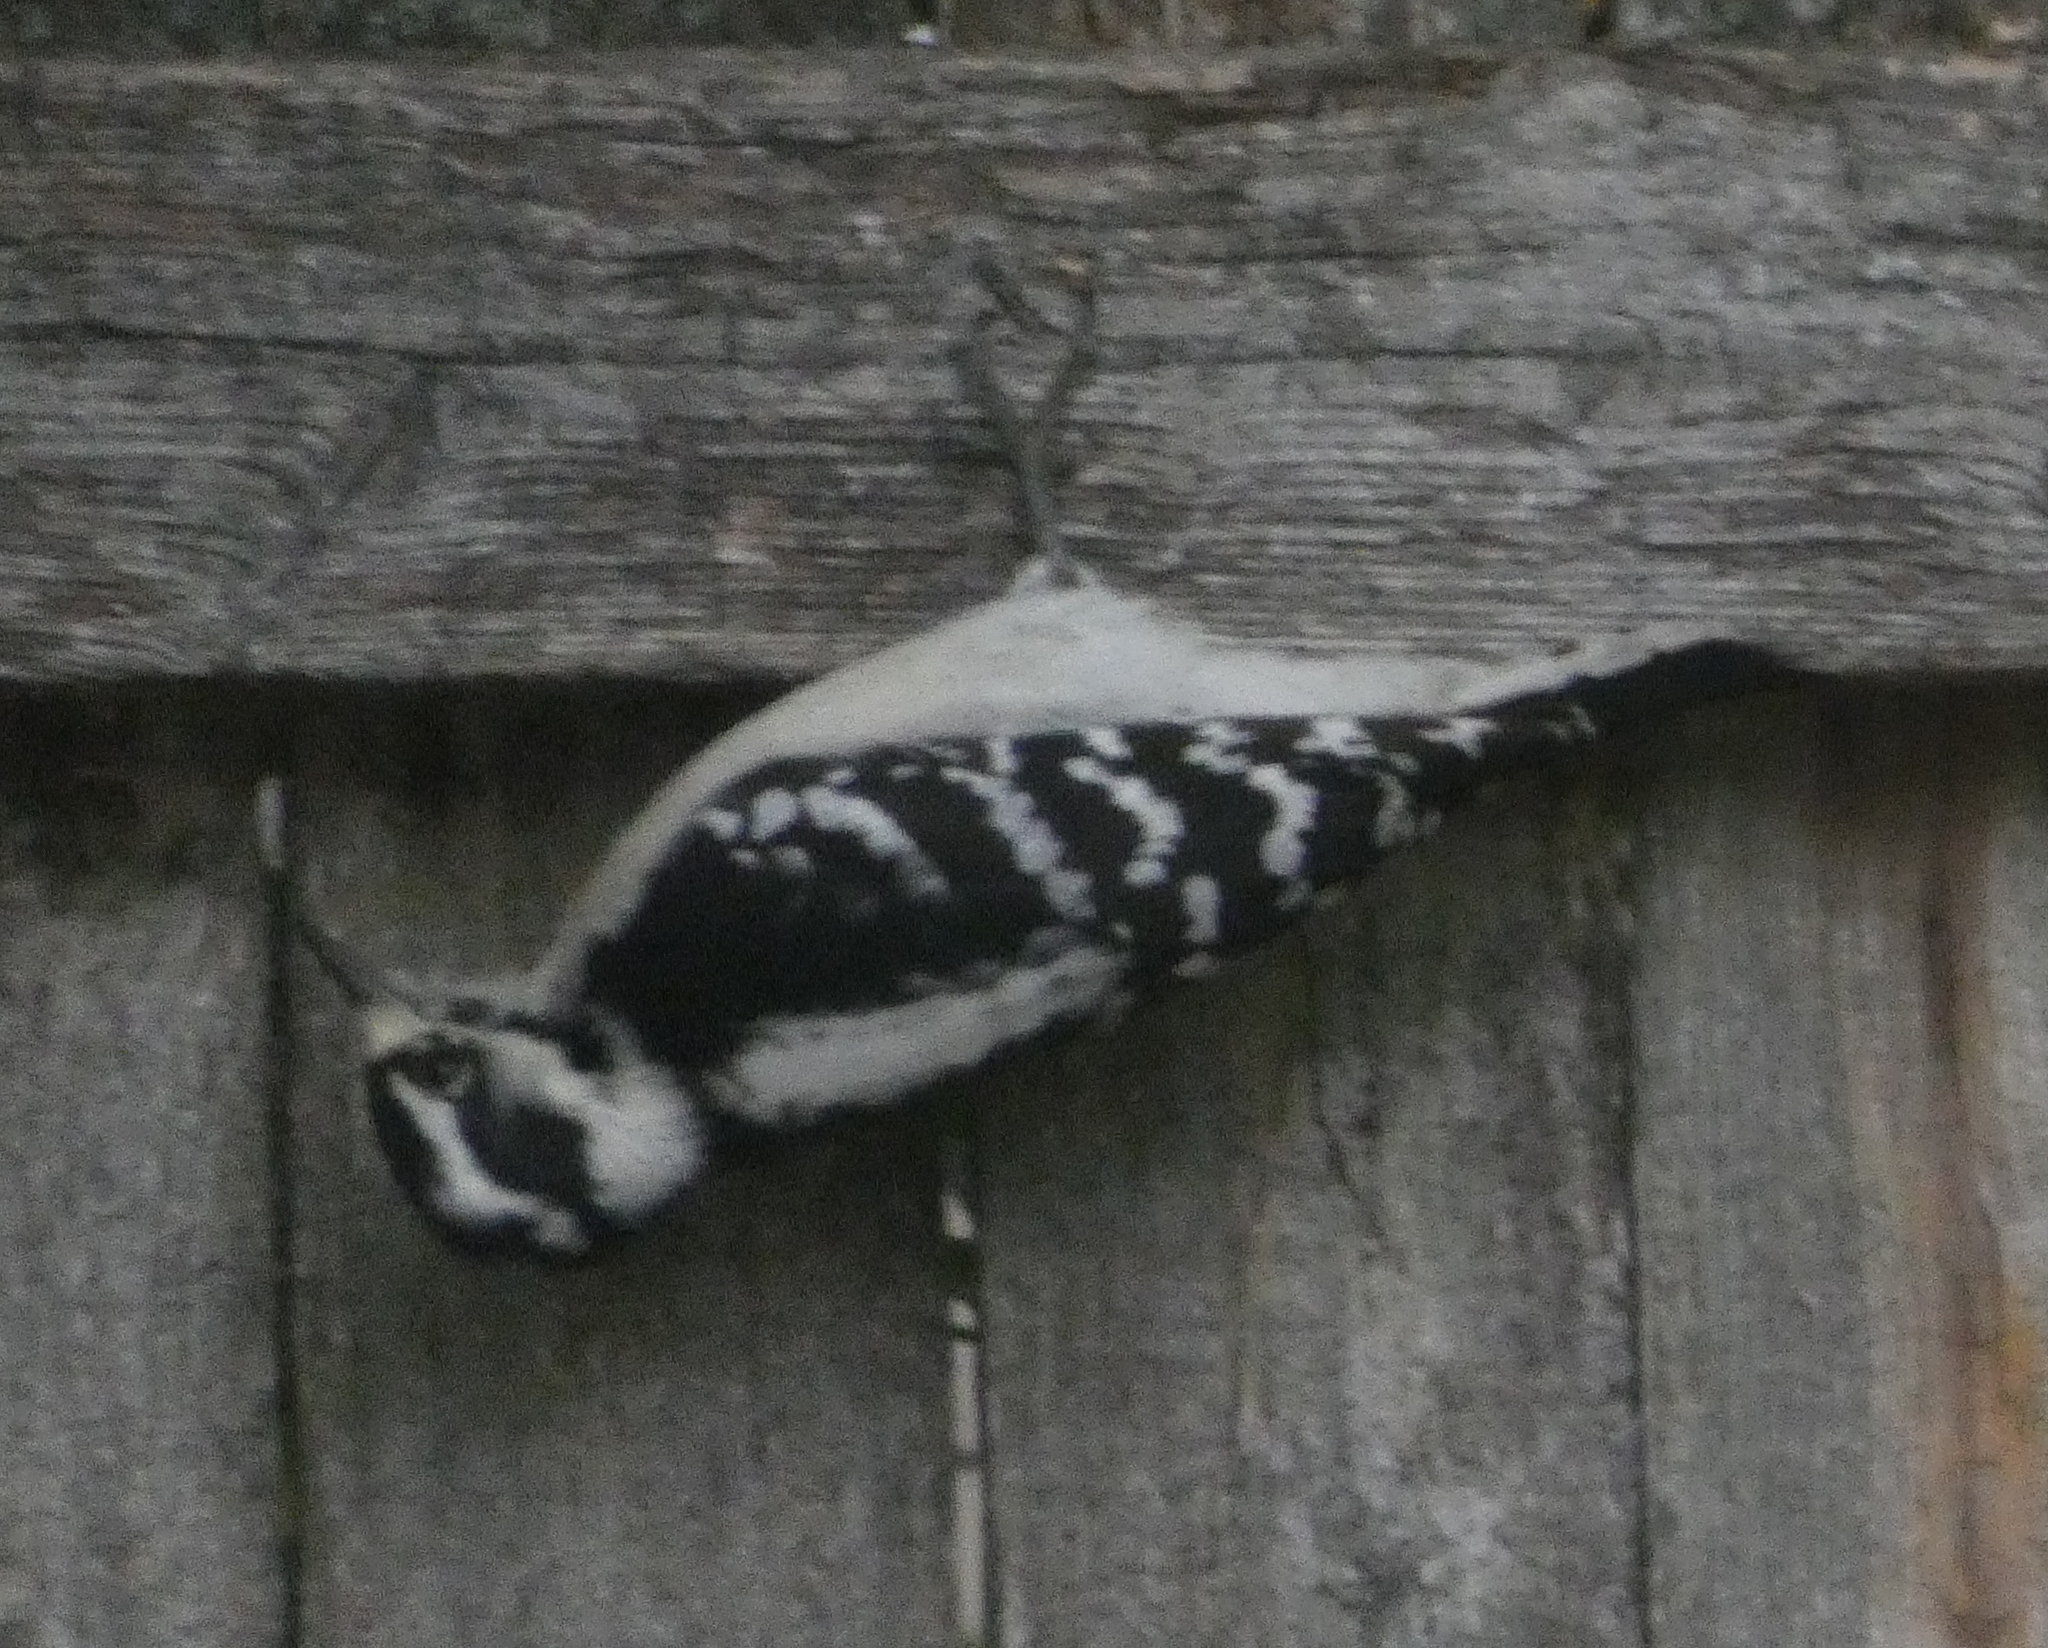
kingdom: Animalia
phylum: Chordata
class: Aves
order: Piciformes
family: Picidae
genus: Dryobates
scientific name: Dryobates pubescens
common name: Downy woodpecker
